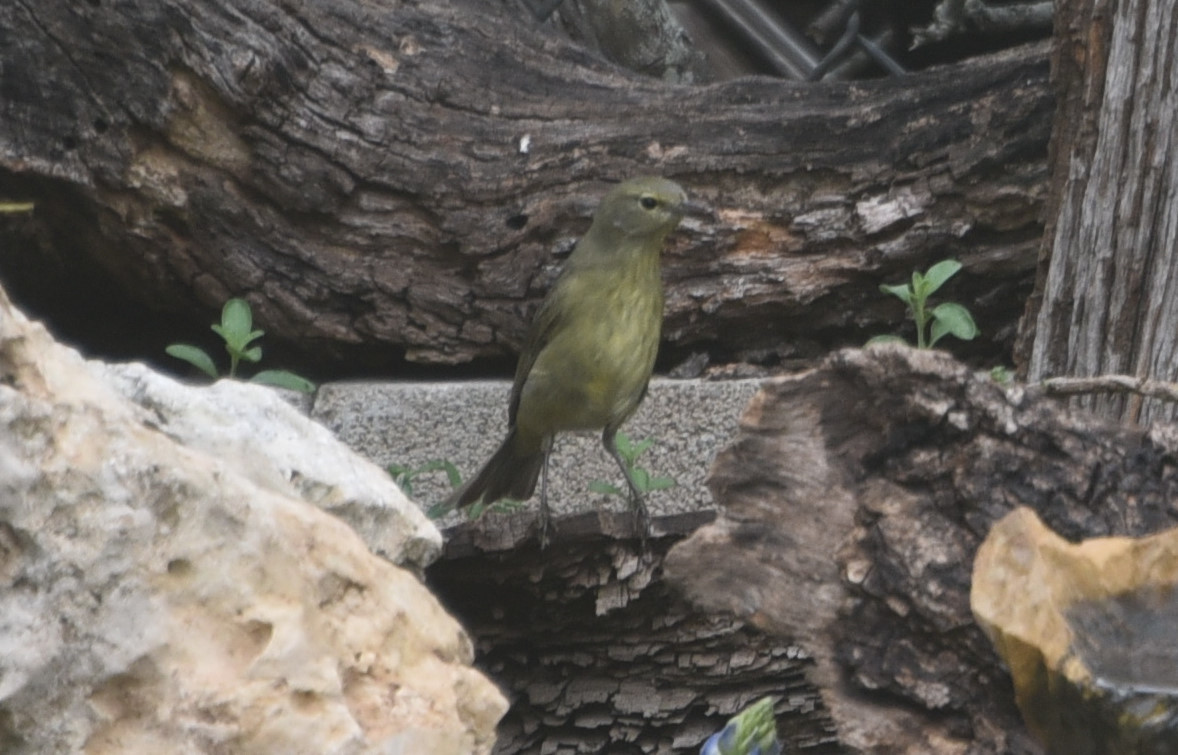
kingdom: Animalia
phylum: Chordata
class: Aves
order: Passeriformes
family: Parulidae
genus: Leiothlypis
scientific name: Leiothlypis celata
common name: Orange-crowned warbler
